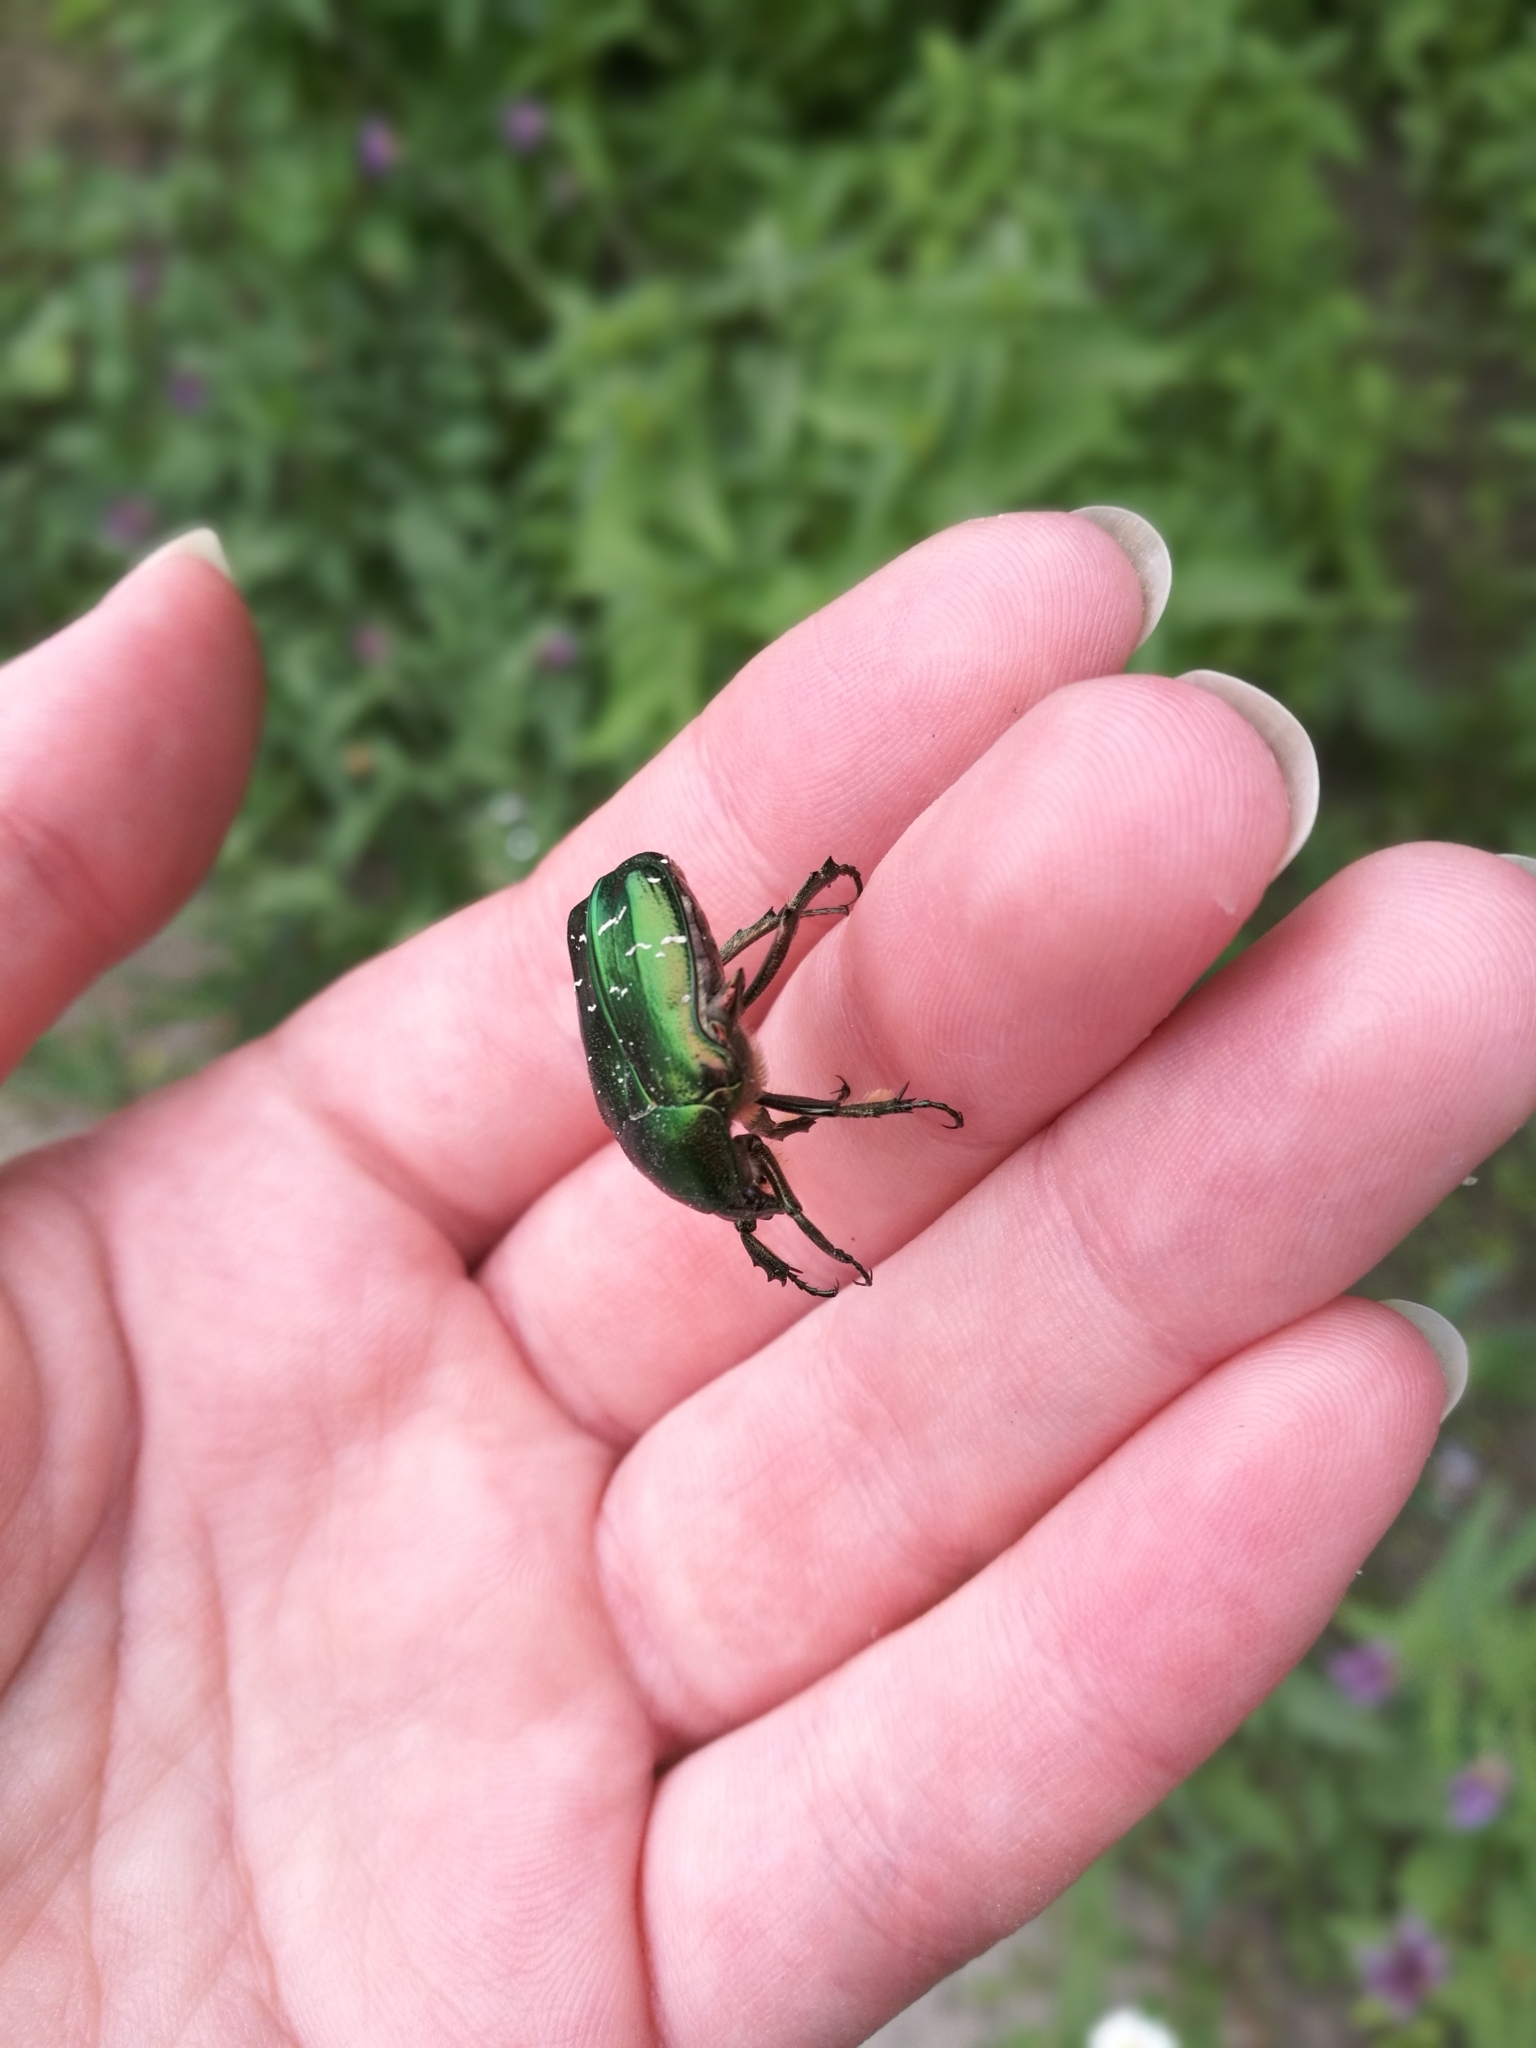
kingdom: Animalia
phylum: Arthropoda
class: Insecta
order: Coleoptera
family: Scarabaeidae
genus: Cetonia
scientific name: Cetonia aurata
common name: Rose chafer
